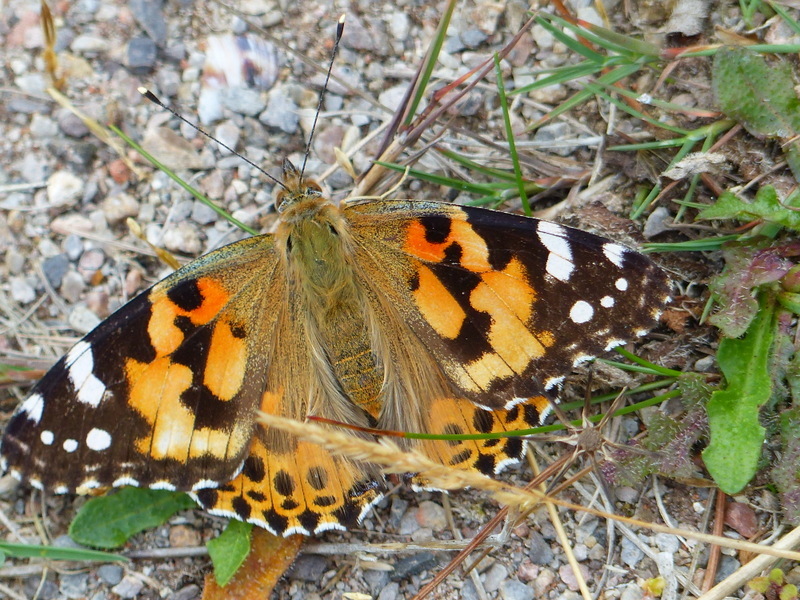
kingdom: Animalia
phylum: Arthropoda
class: Insecta
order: Lepidoptera
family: Nymphalidae
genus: Vanessa
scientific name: Vanessa cardui
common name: Painted lady
